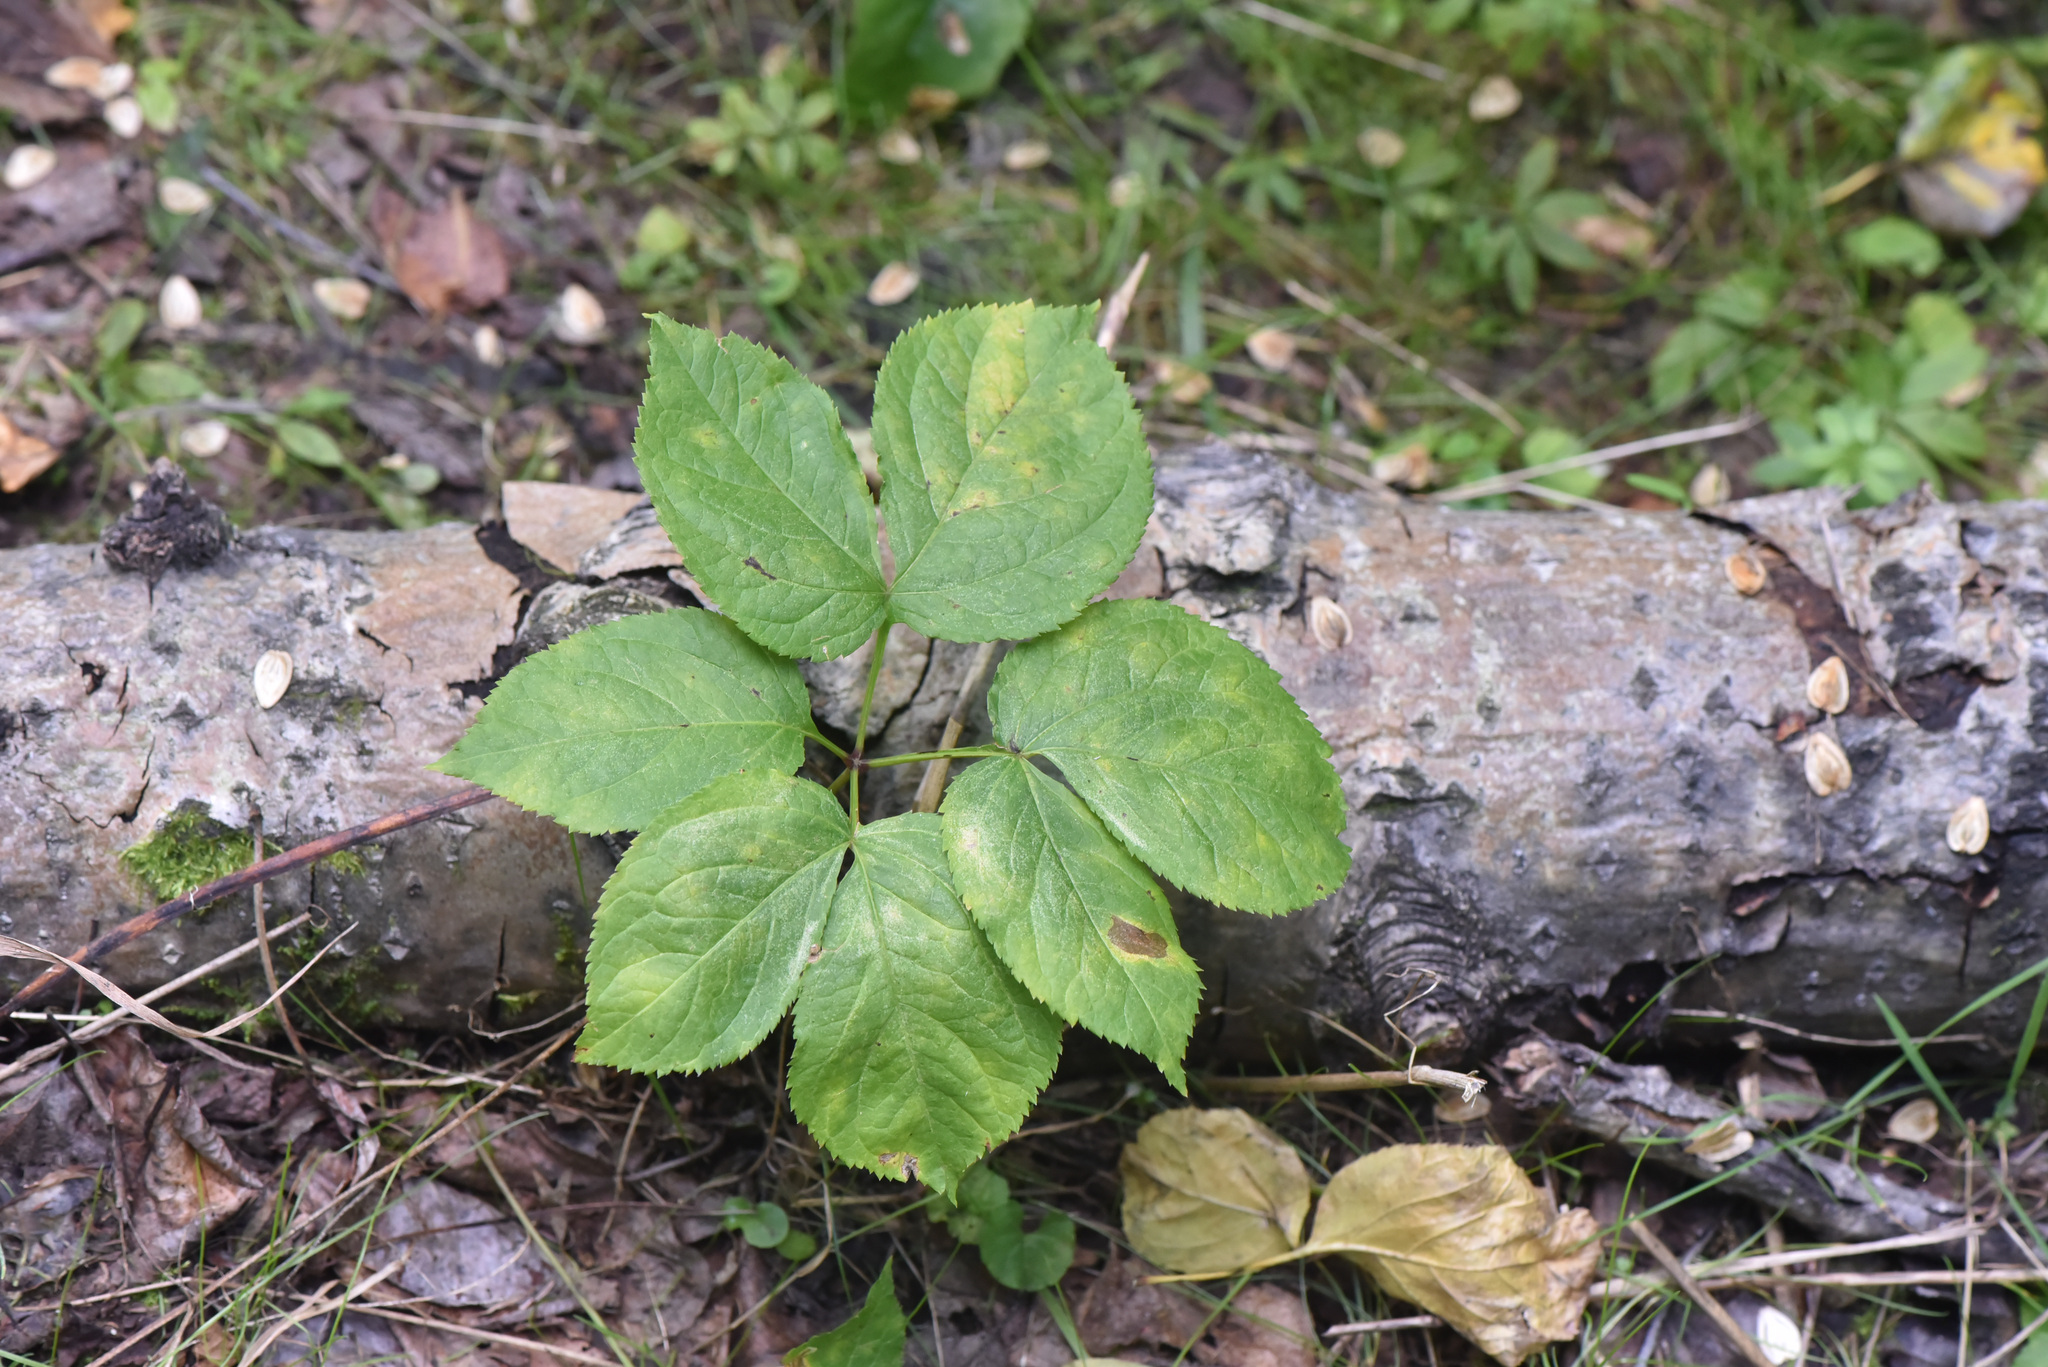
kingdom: Plantae
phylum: Tracheophyta
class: Magnoliopsida
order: Apiales
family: Araliaceae
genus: Aralia
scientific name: Aralia nudicaulis
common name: Wild sarsaparilla
